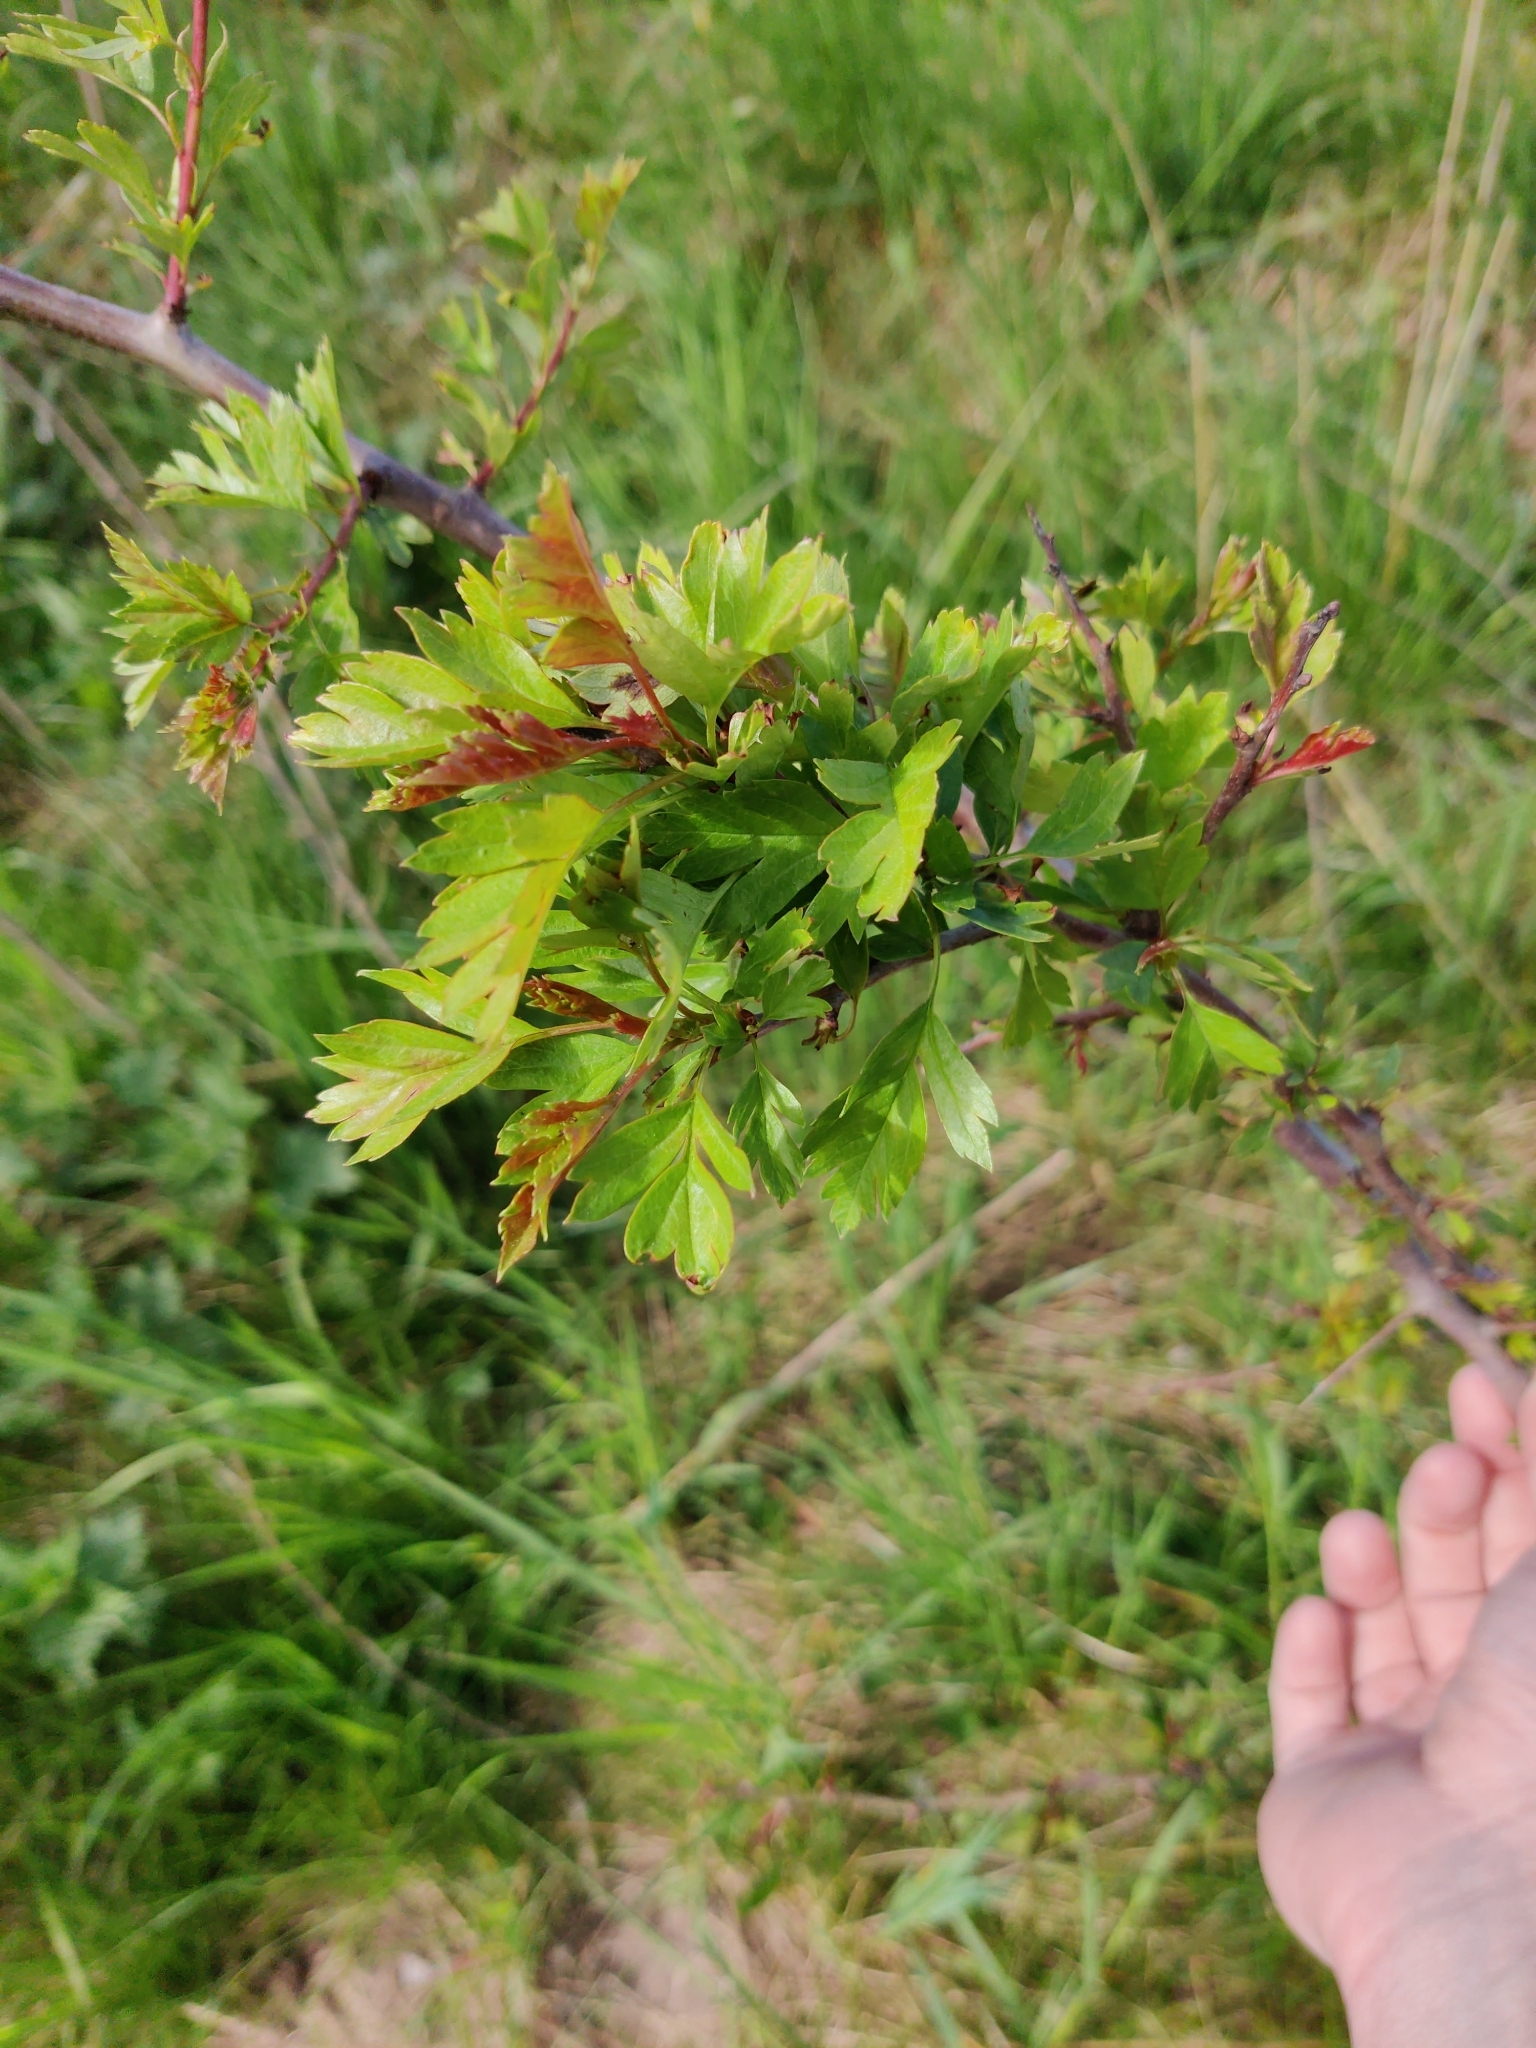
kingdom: Plantae
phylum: Tracheophyta
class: Magnoliopsida
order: Rosales
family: Rosaceae
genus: Crataegus
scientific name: Crataegus monogyna
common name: Hawthorn
